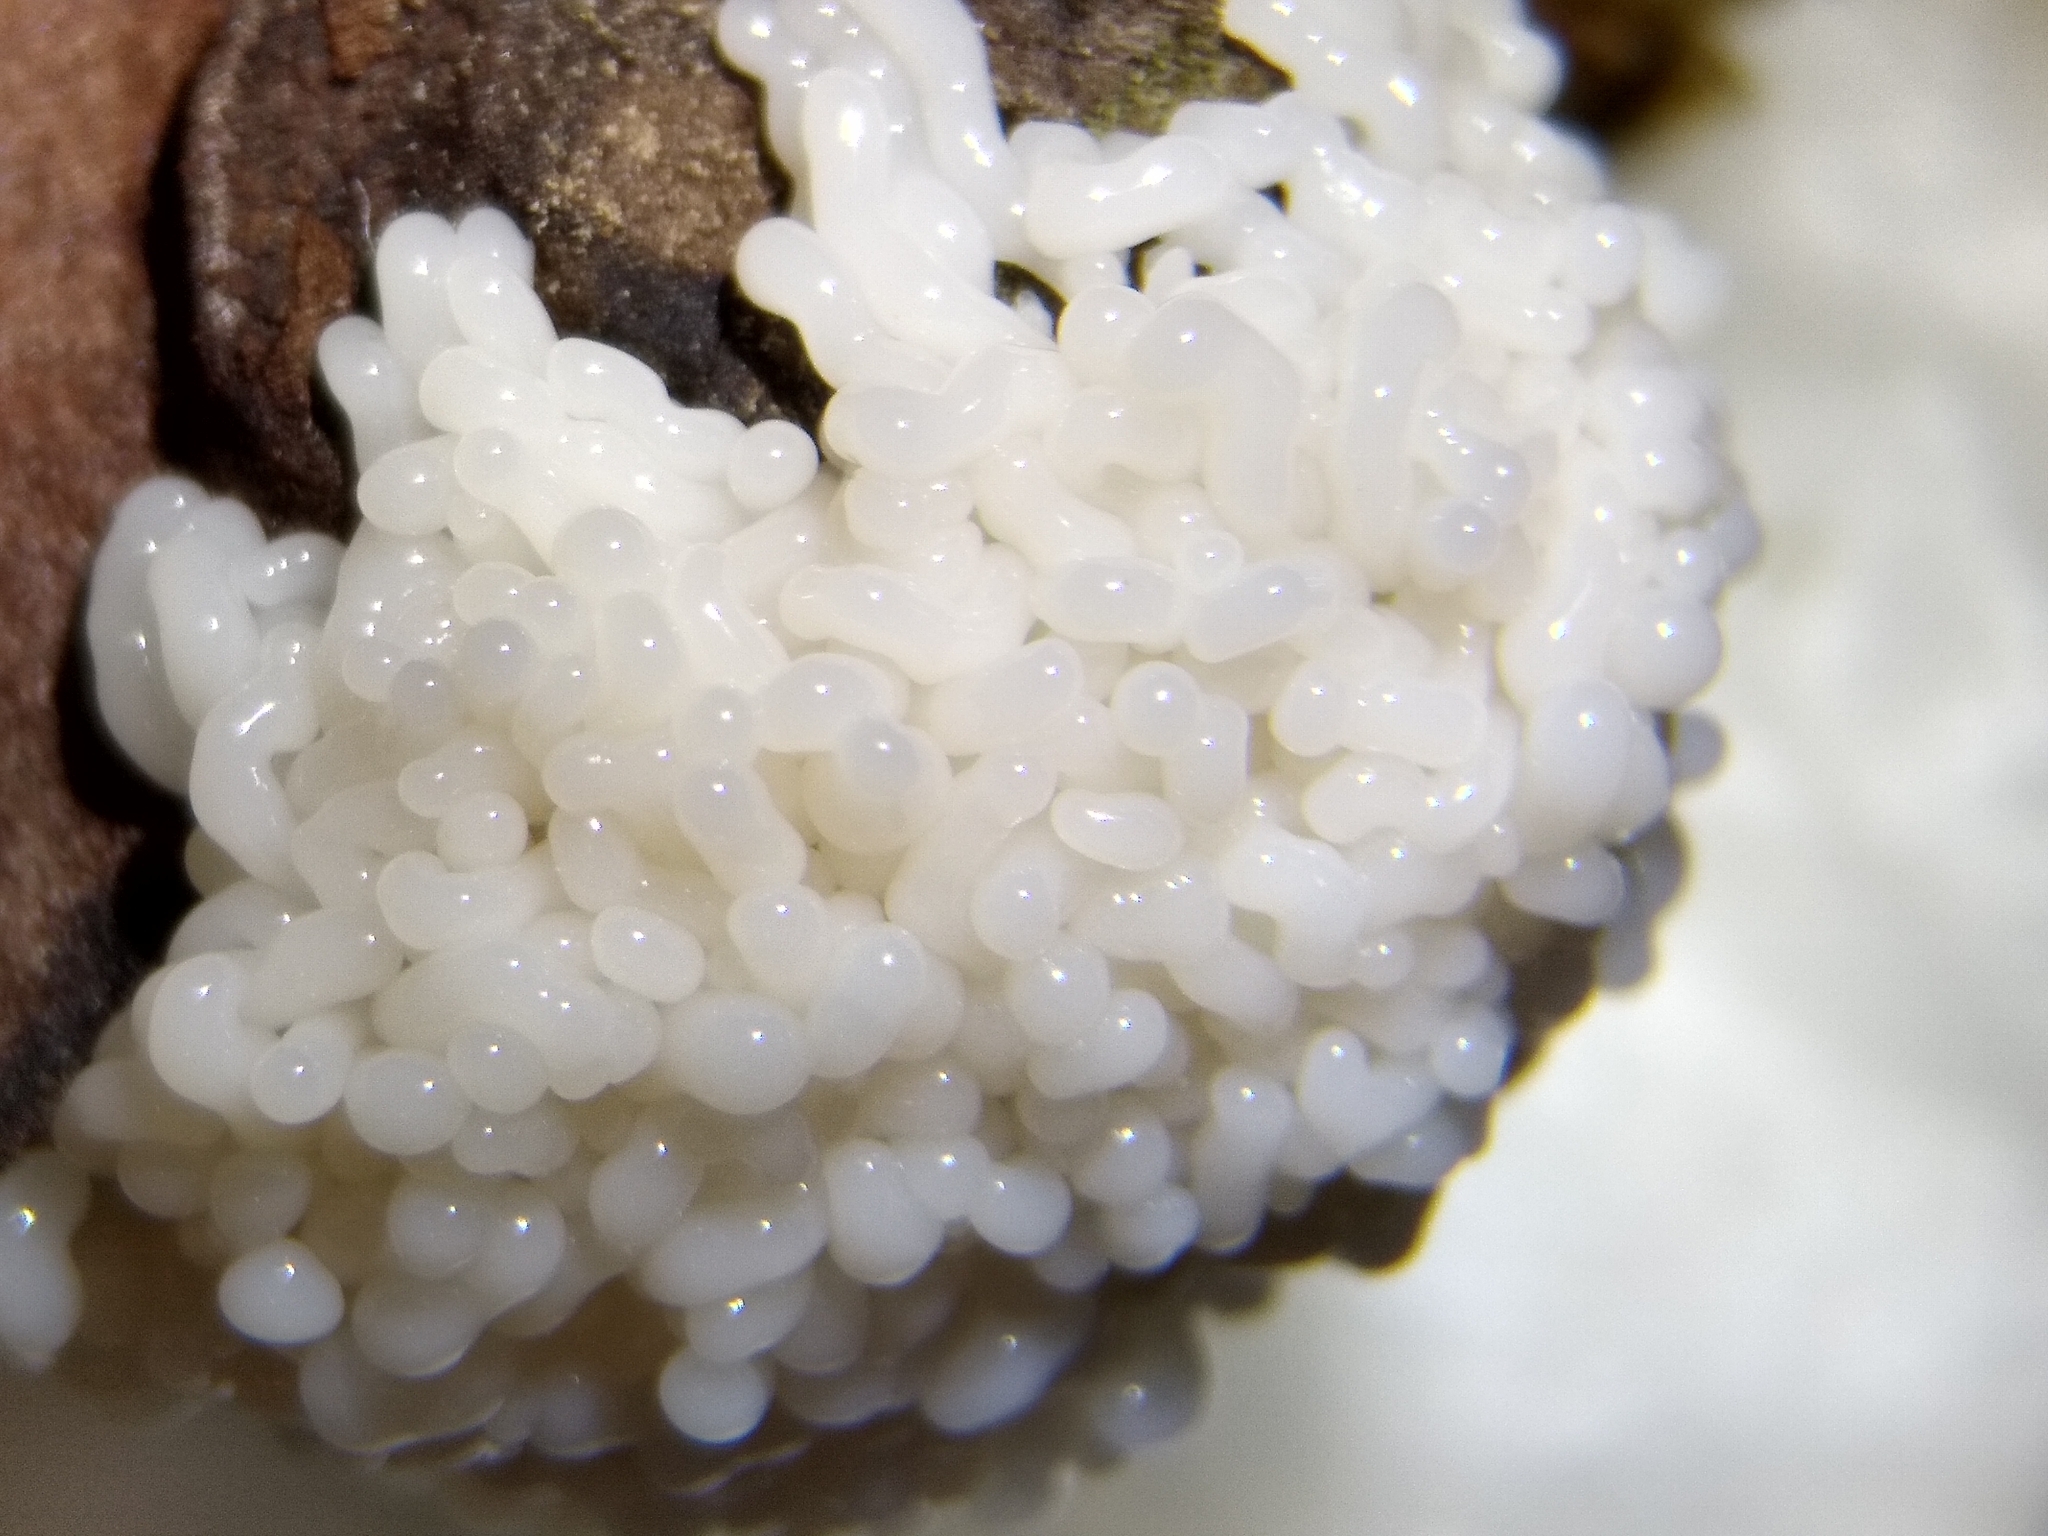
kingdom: Protozoa
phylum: Mycetozoa
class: Myxomycetes
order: Trichiales
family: Arcyriaceae
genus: Arcyria
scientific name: Arcyria obvelata
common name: Yellow carnival candy slime
